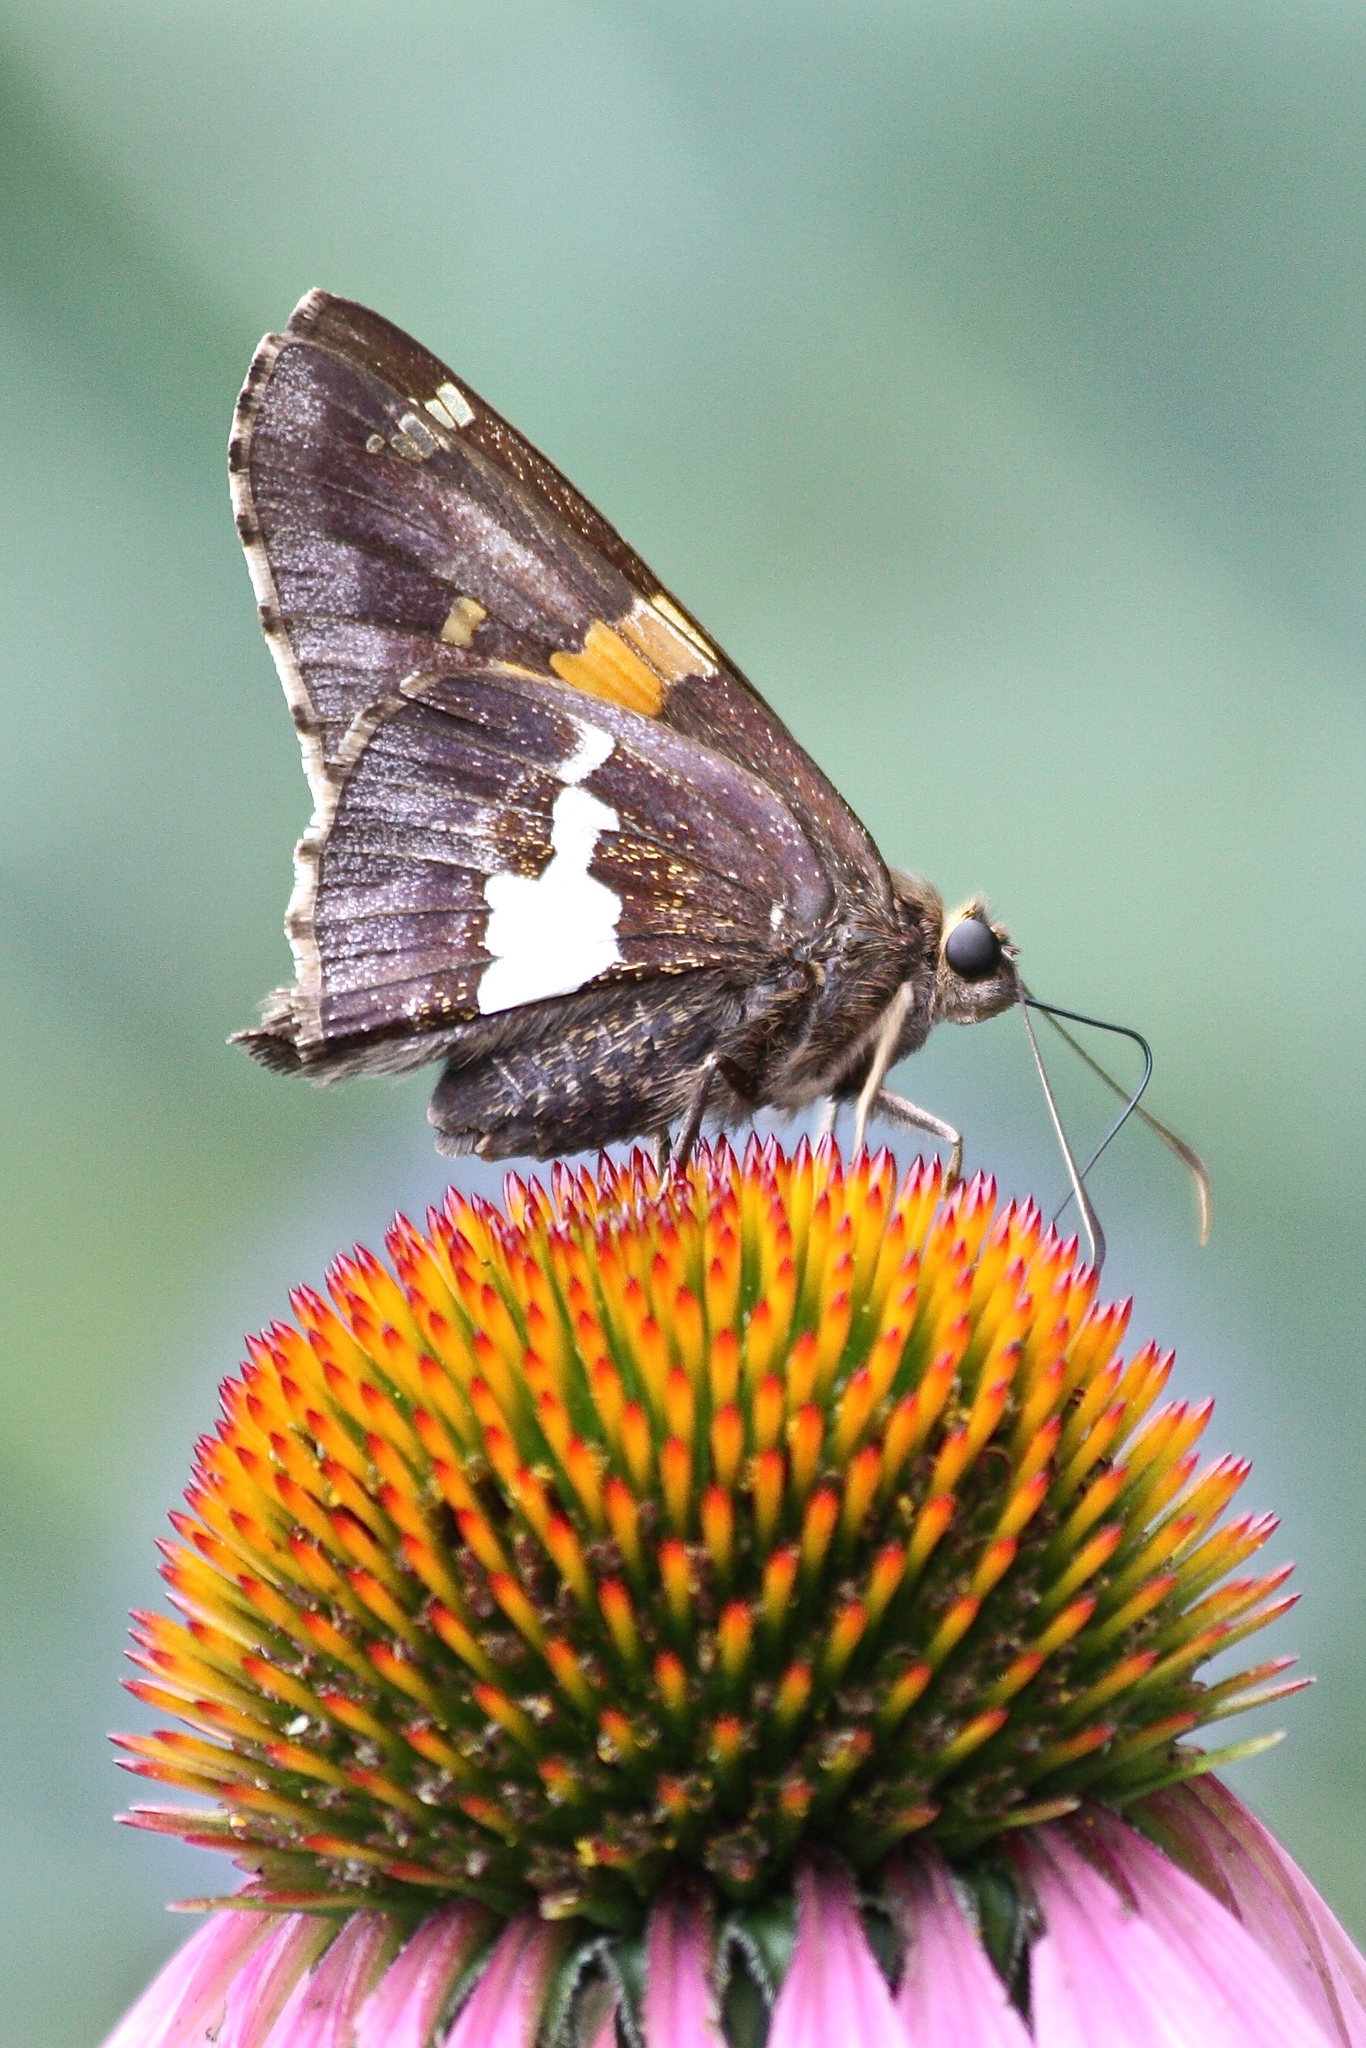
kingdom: Animalia
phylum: Arthropoda
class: Insecta
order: Lepidoptera
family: Hesperiidae
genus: Epargyreus
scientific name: Epargyreus clarus
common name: Silver-spotted skipper
